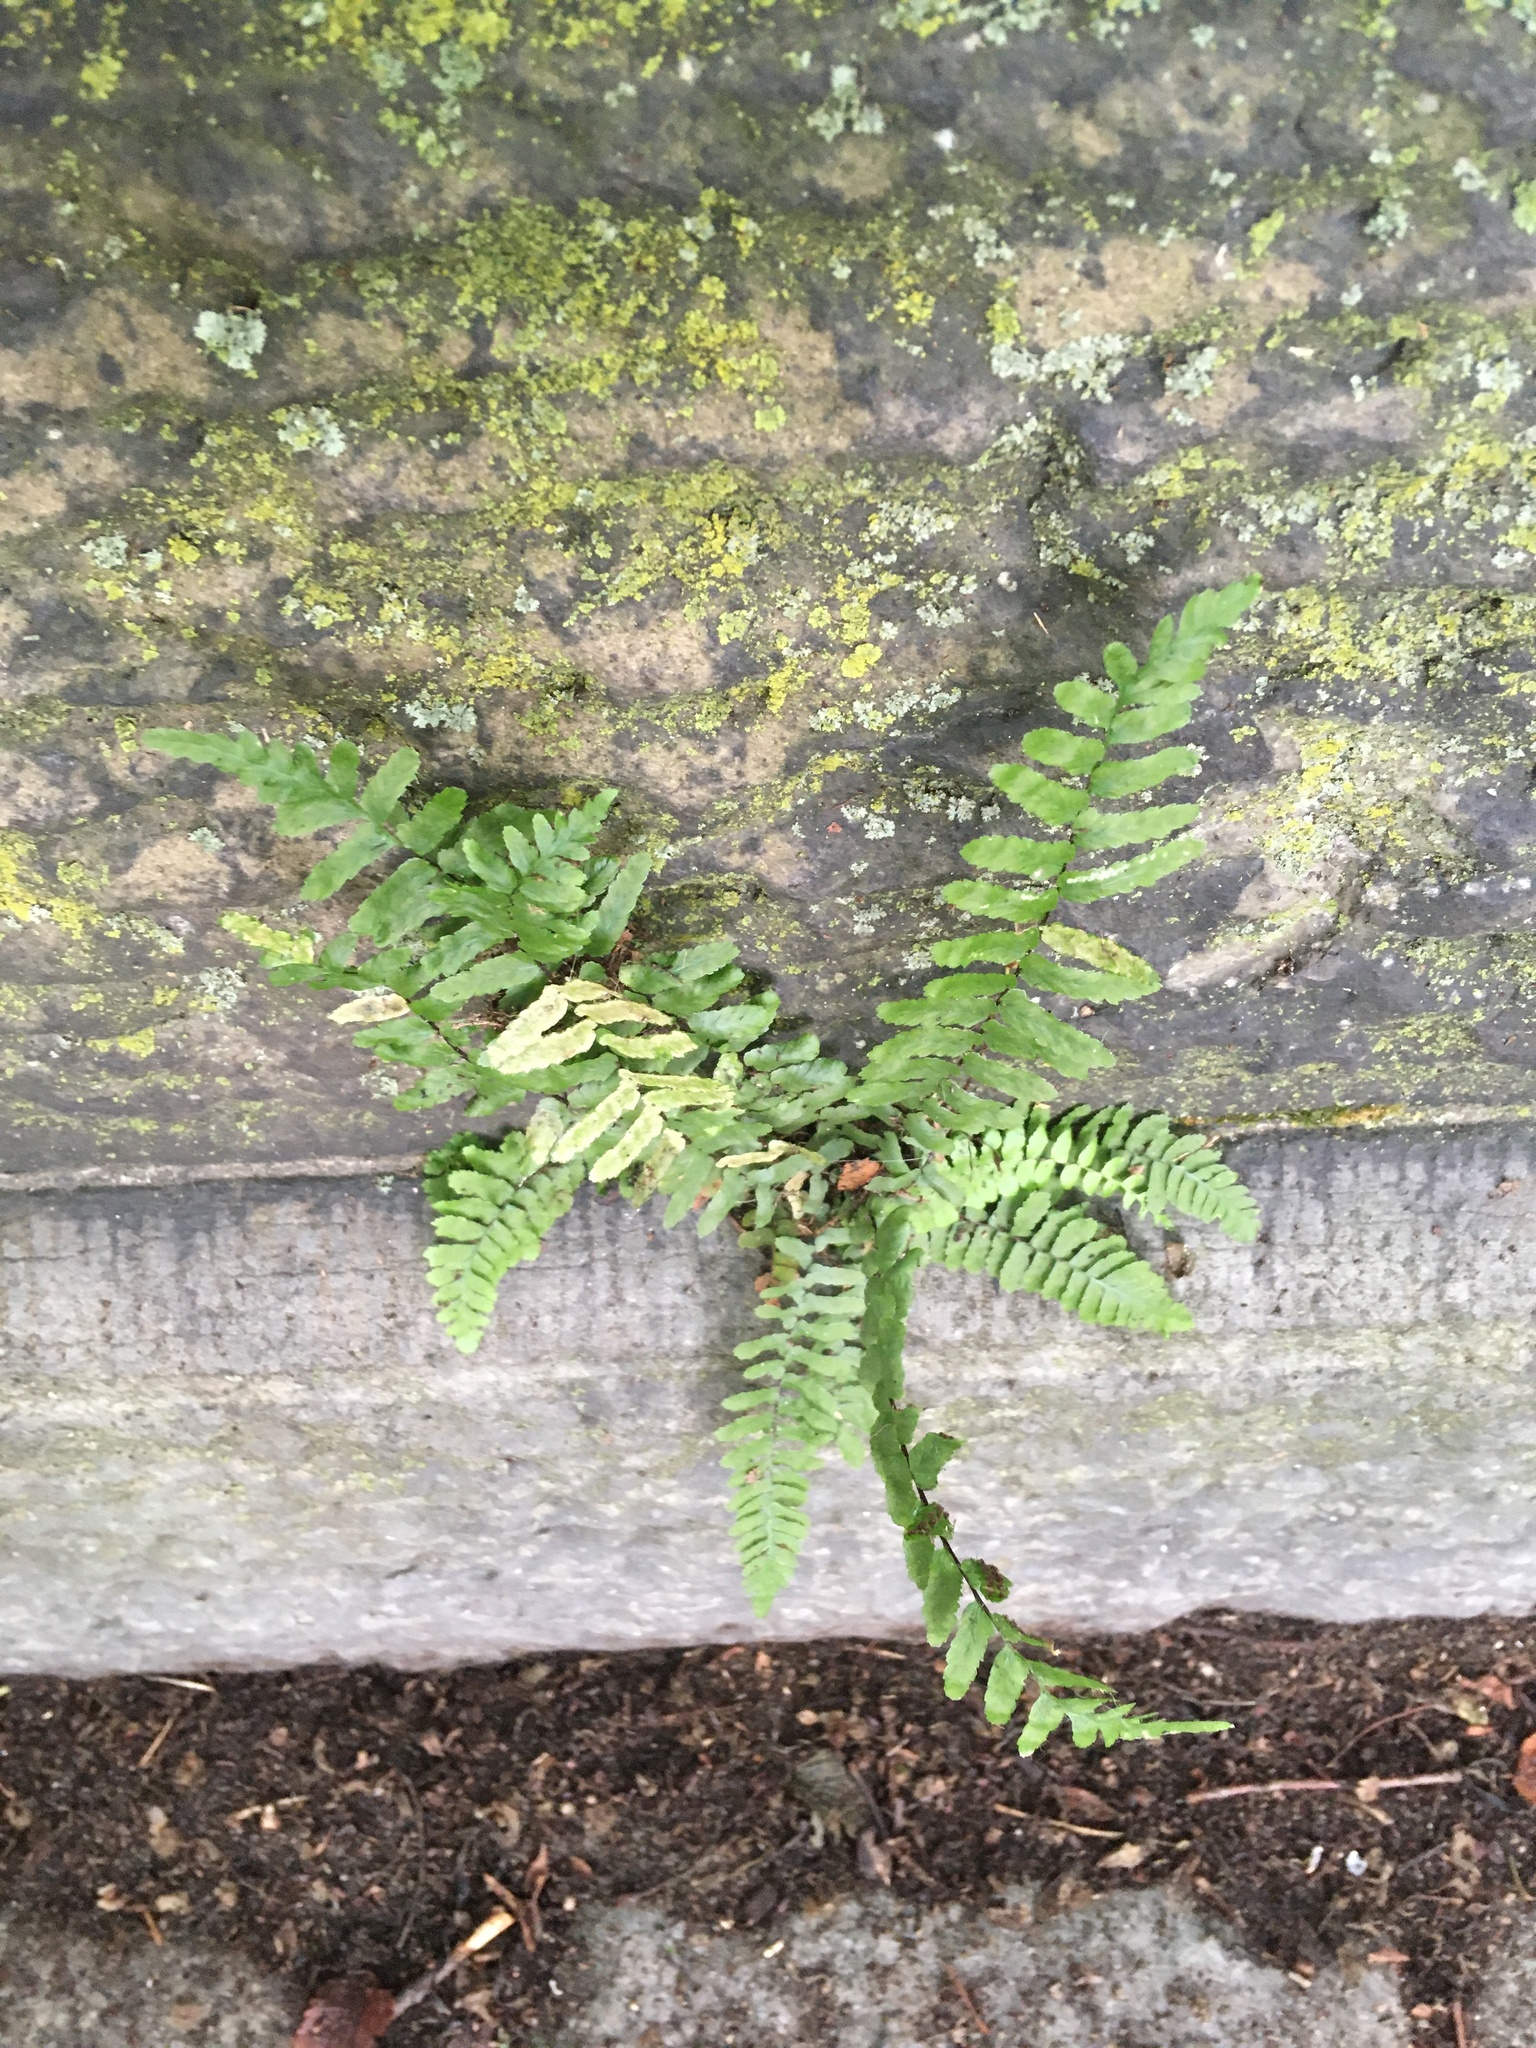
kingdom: Plantae
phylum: Tracheophyta
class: Polypodiopsida
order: Polypodiales
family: Aspleniaceae
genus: Asplenium
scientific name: Asplenium platyneuron
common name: Ebony spleenwort
